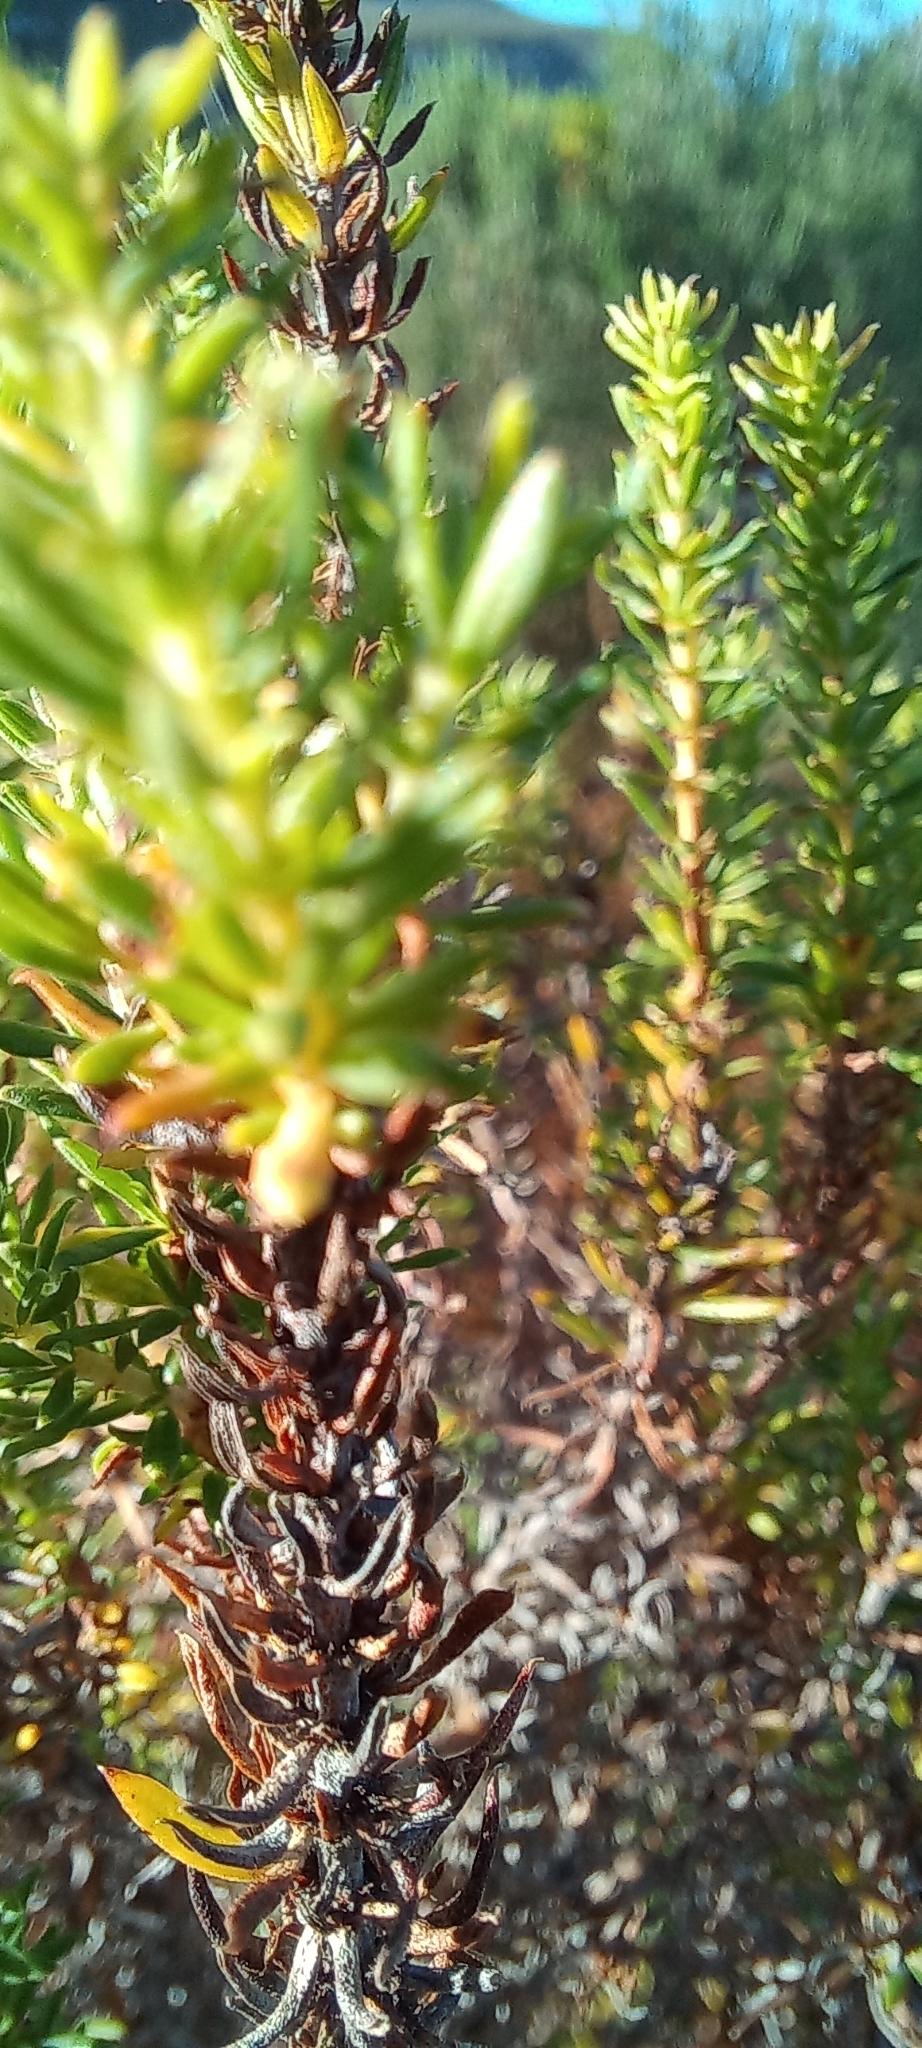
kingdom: Plantae
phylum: Tracheophyta
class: Magnoliopsida
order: Gentianales
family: Rubiaceae
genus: Anthospermum
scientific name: Anthospermum aethiopicum
